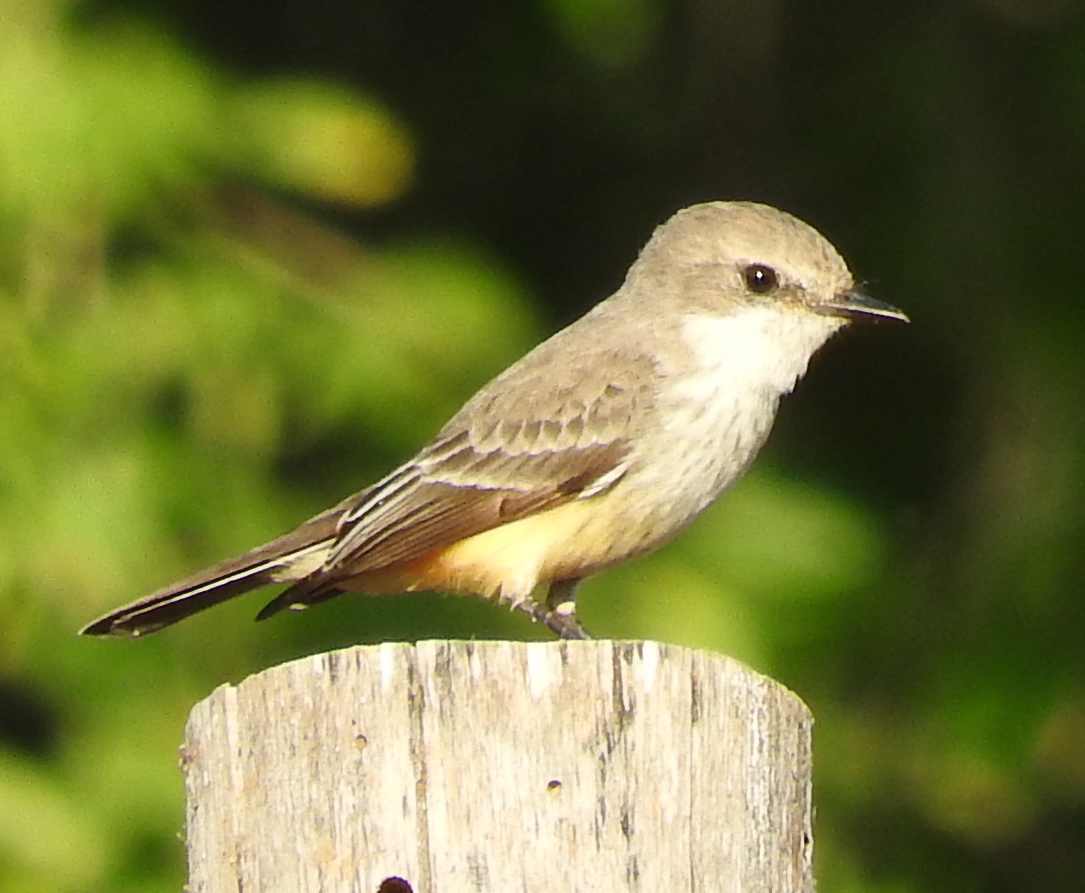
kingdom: Animalia
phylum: Chordata
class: Aves
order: Passeriformes
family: Tyrannidae
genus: Pyrocephalus
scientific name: Pyrocephalus rubinus
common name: Vermilion flycatcher
